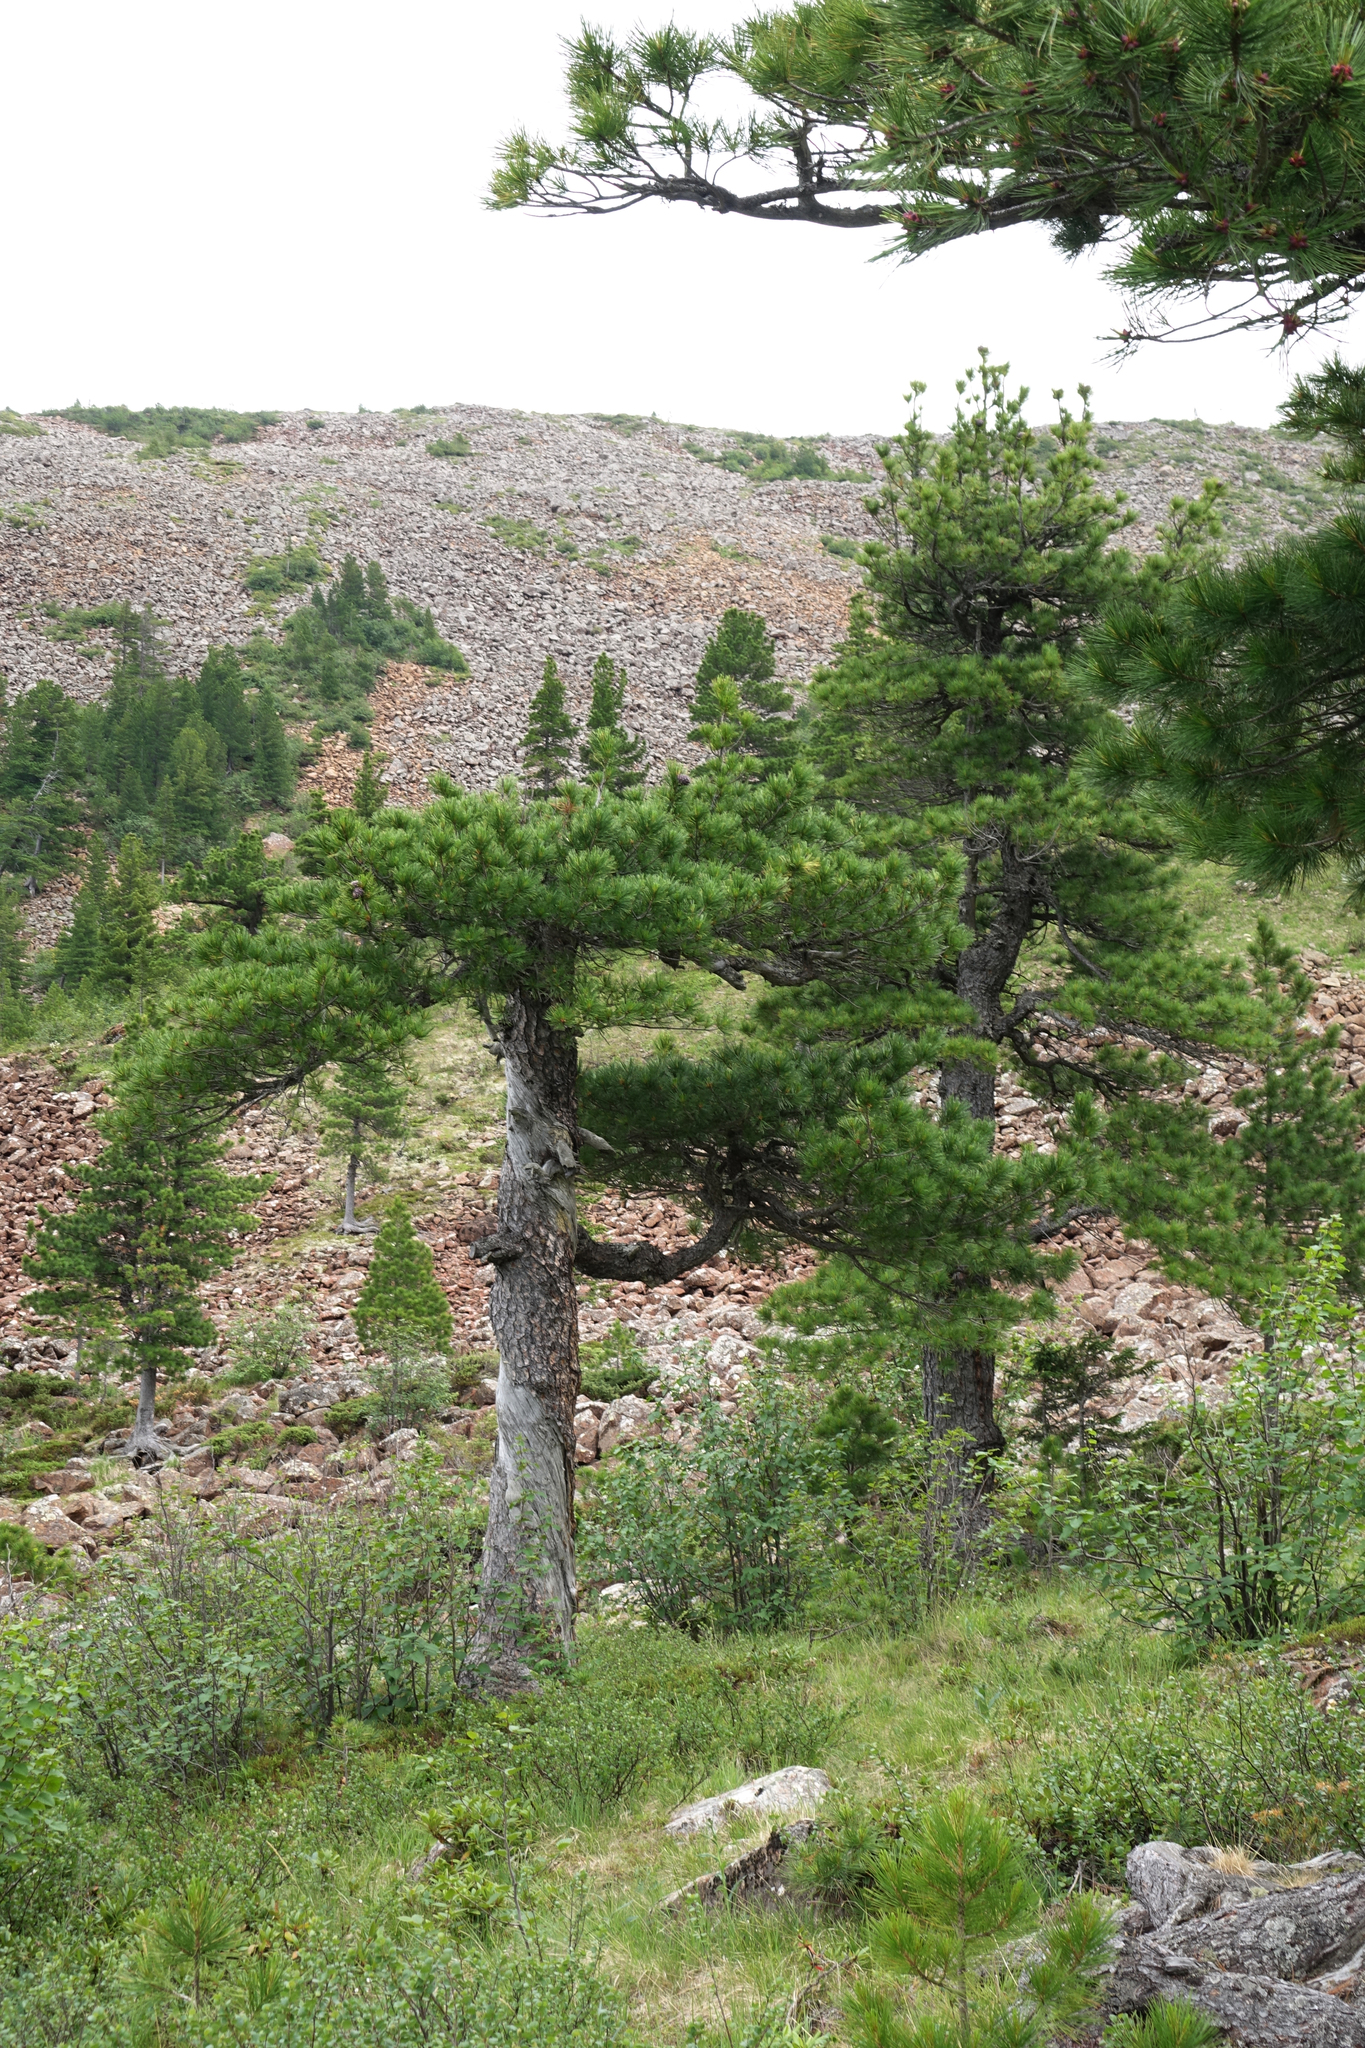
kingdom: Plantae
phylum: Tracheophyta
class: Pinopsida
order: Pinales
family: Pinaceae
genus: Pinus
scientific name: Pinus sibirica
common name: Siberian pine
